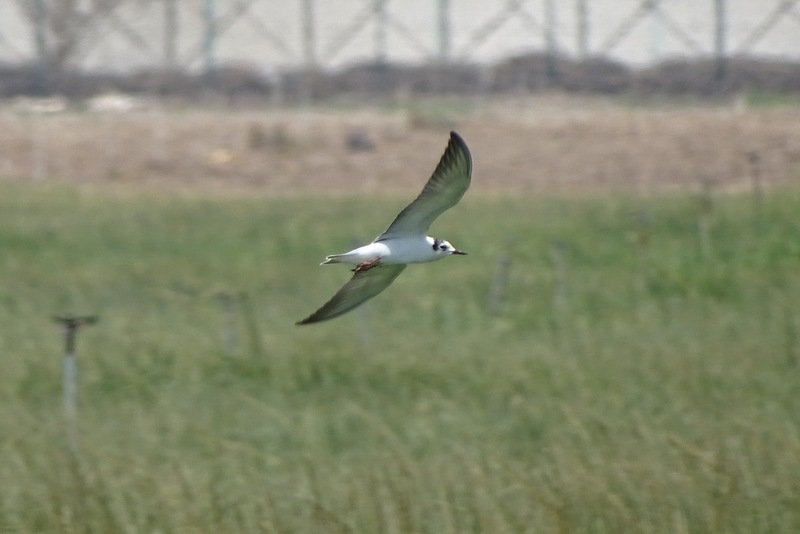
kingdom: Animalia
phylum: Chordata
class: Aves
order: Charadriiformes
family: Laridae
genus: Chlidonias
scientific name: Chlidonias leucopterus
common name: White-winged tern
